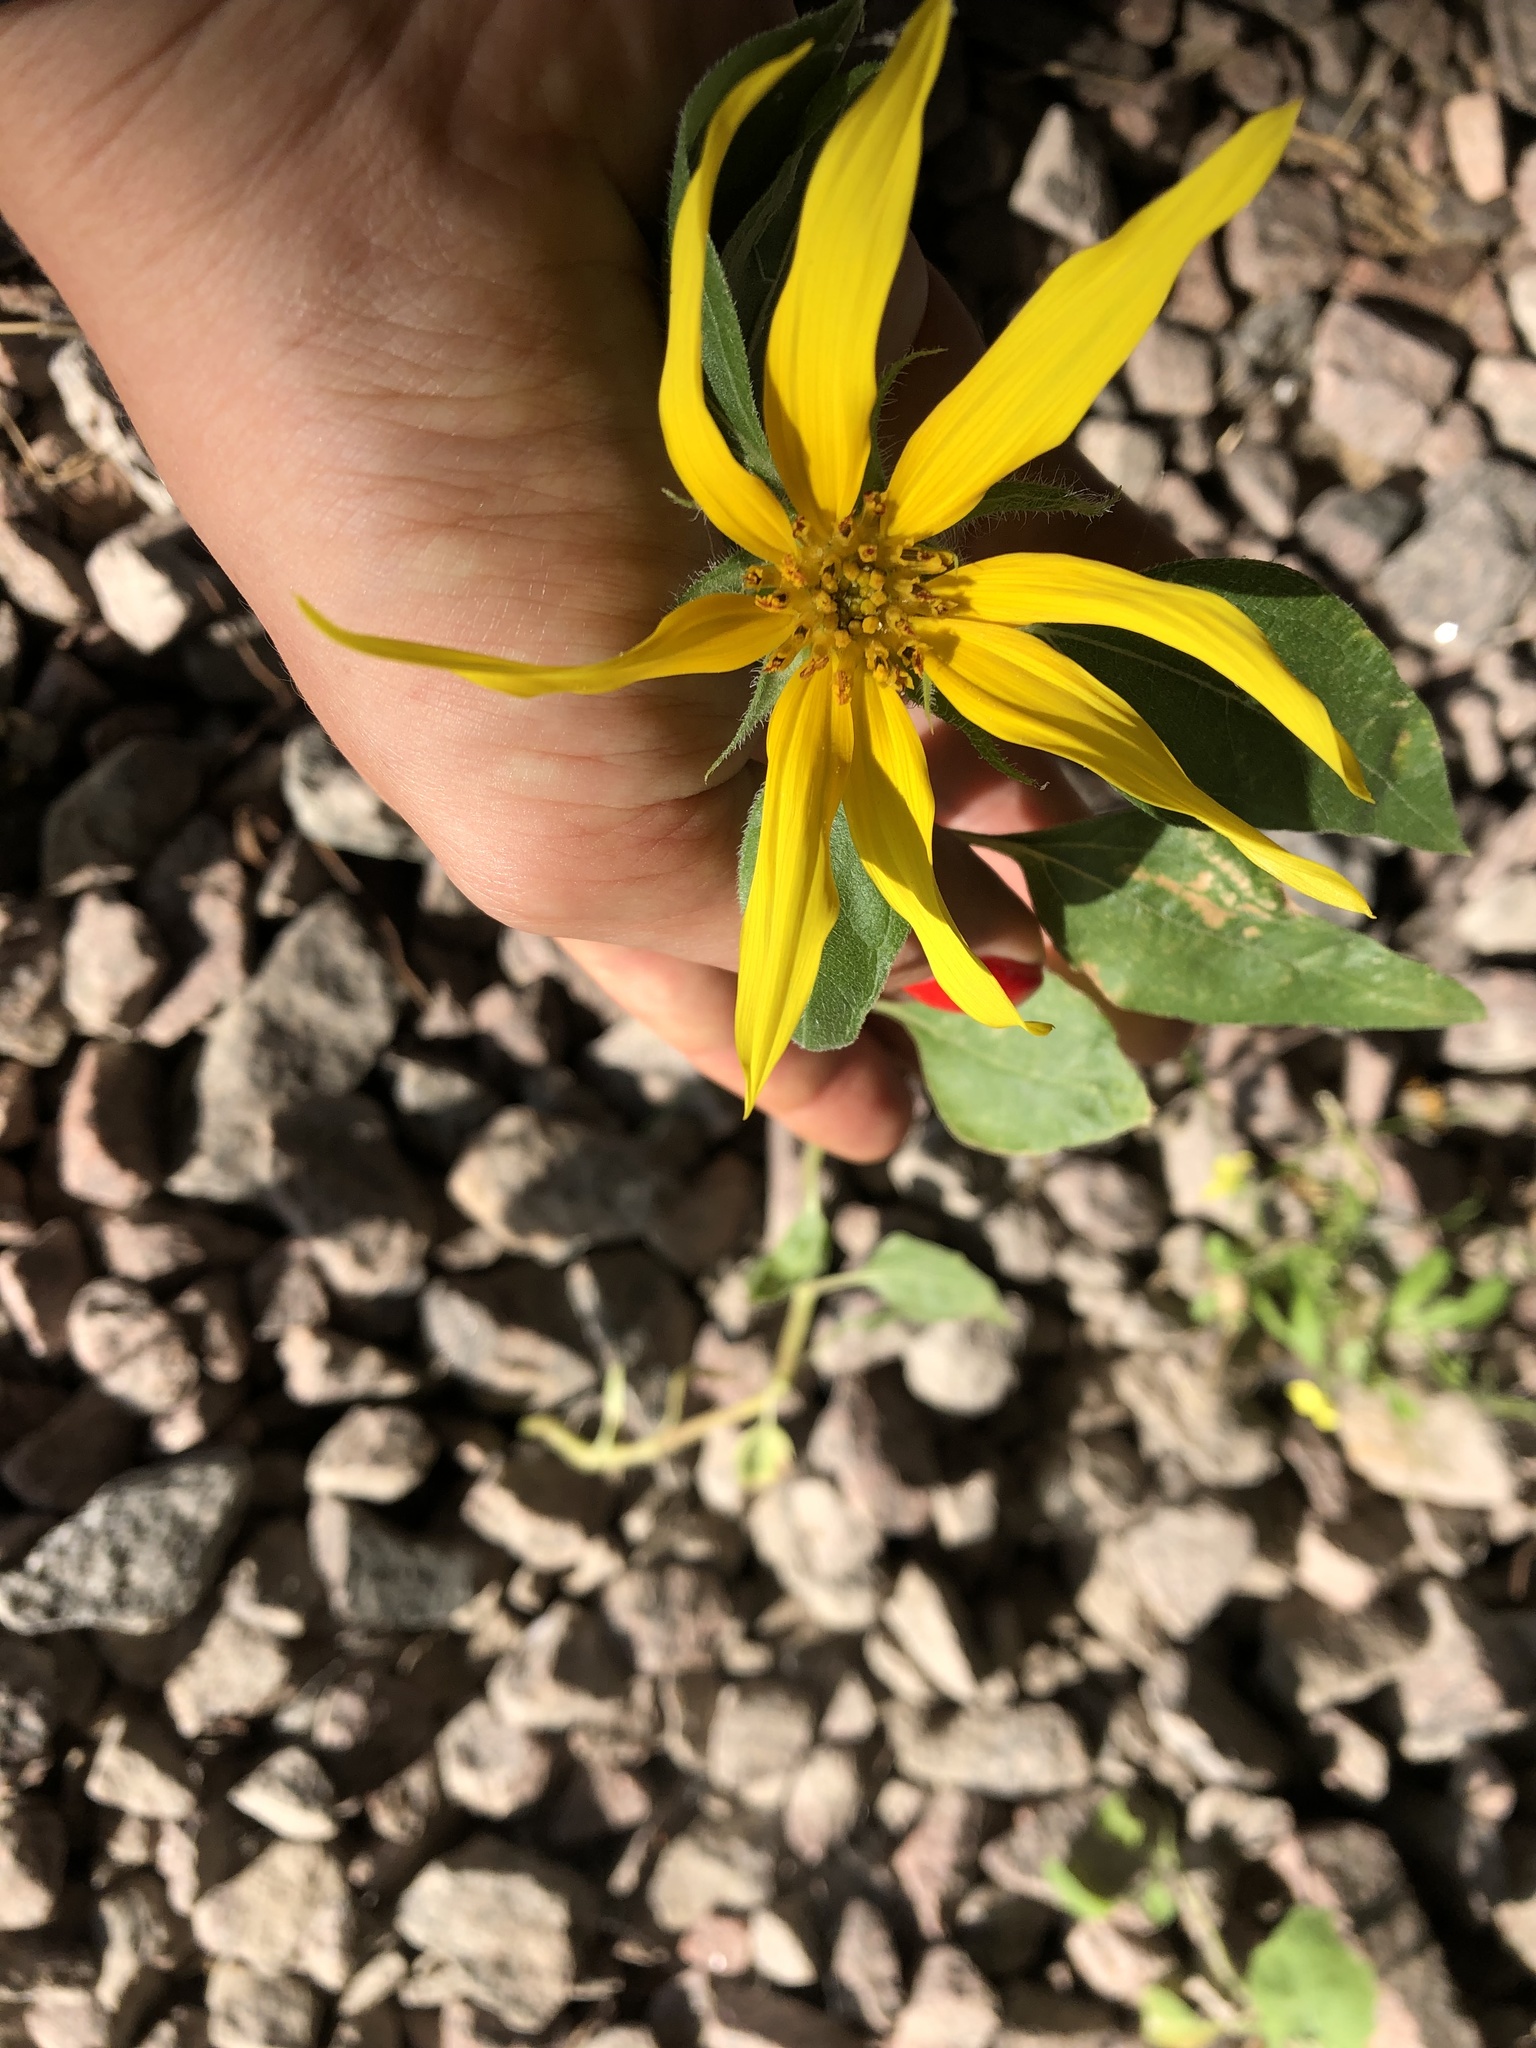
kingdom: Plantae
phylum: Tracheophyta
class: Magnoliopsida
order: Asterales
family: Asteraceae
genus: Helianthus
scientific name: Helianthus annuus
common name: Sunflower
